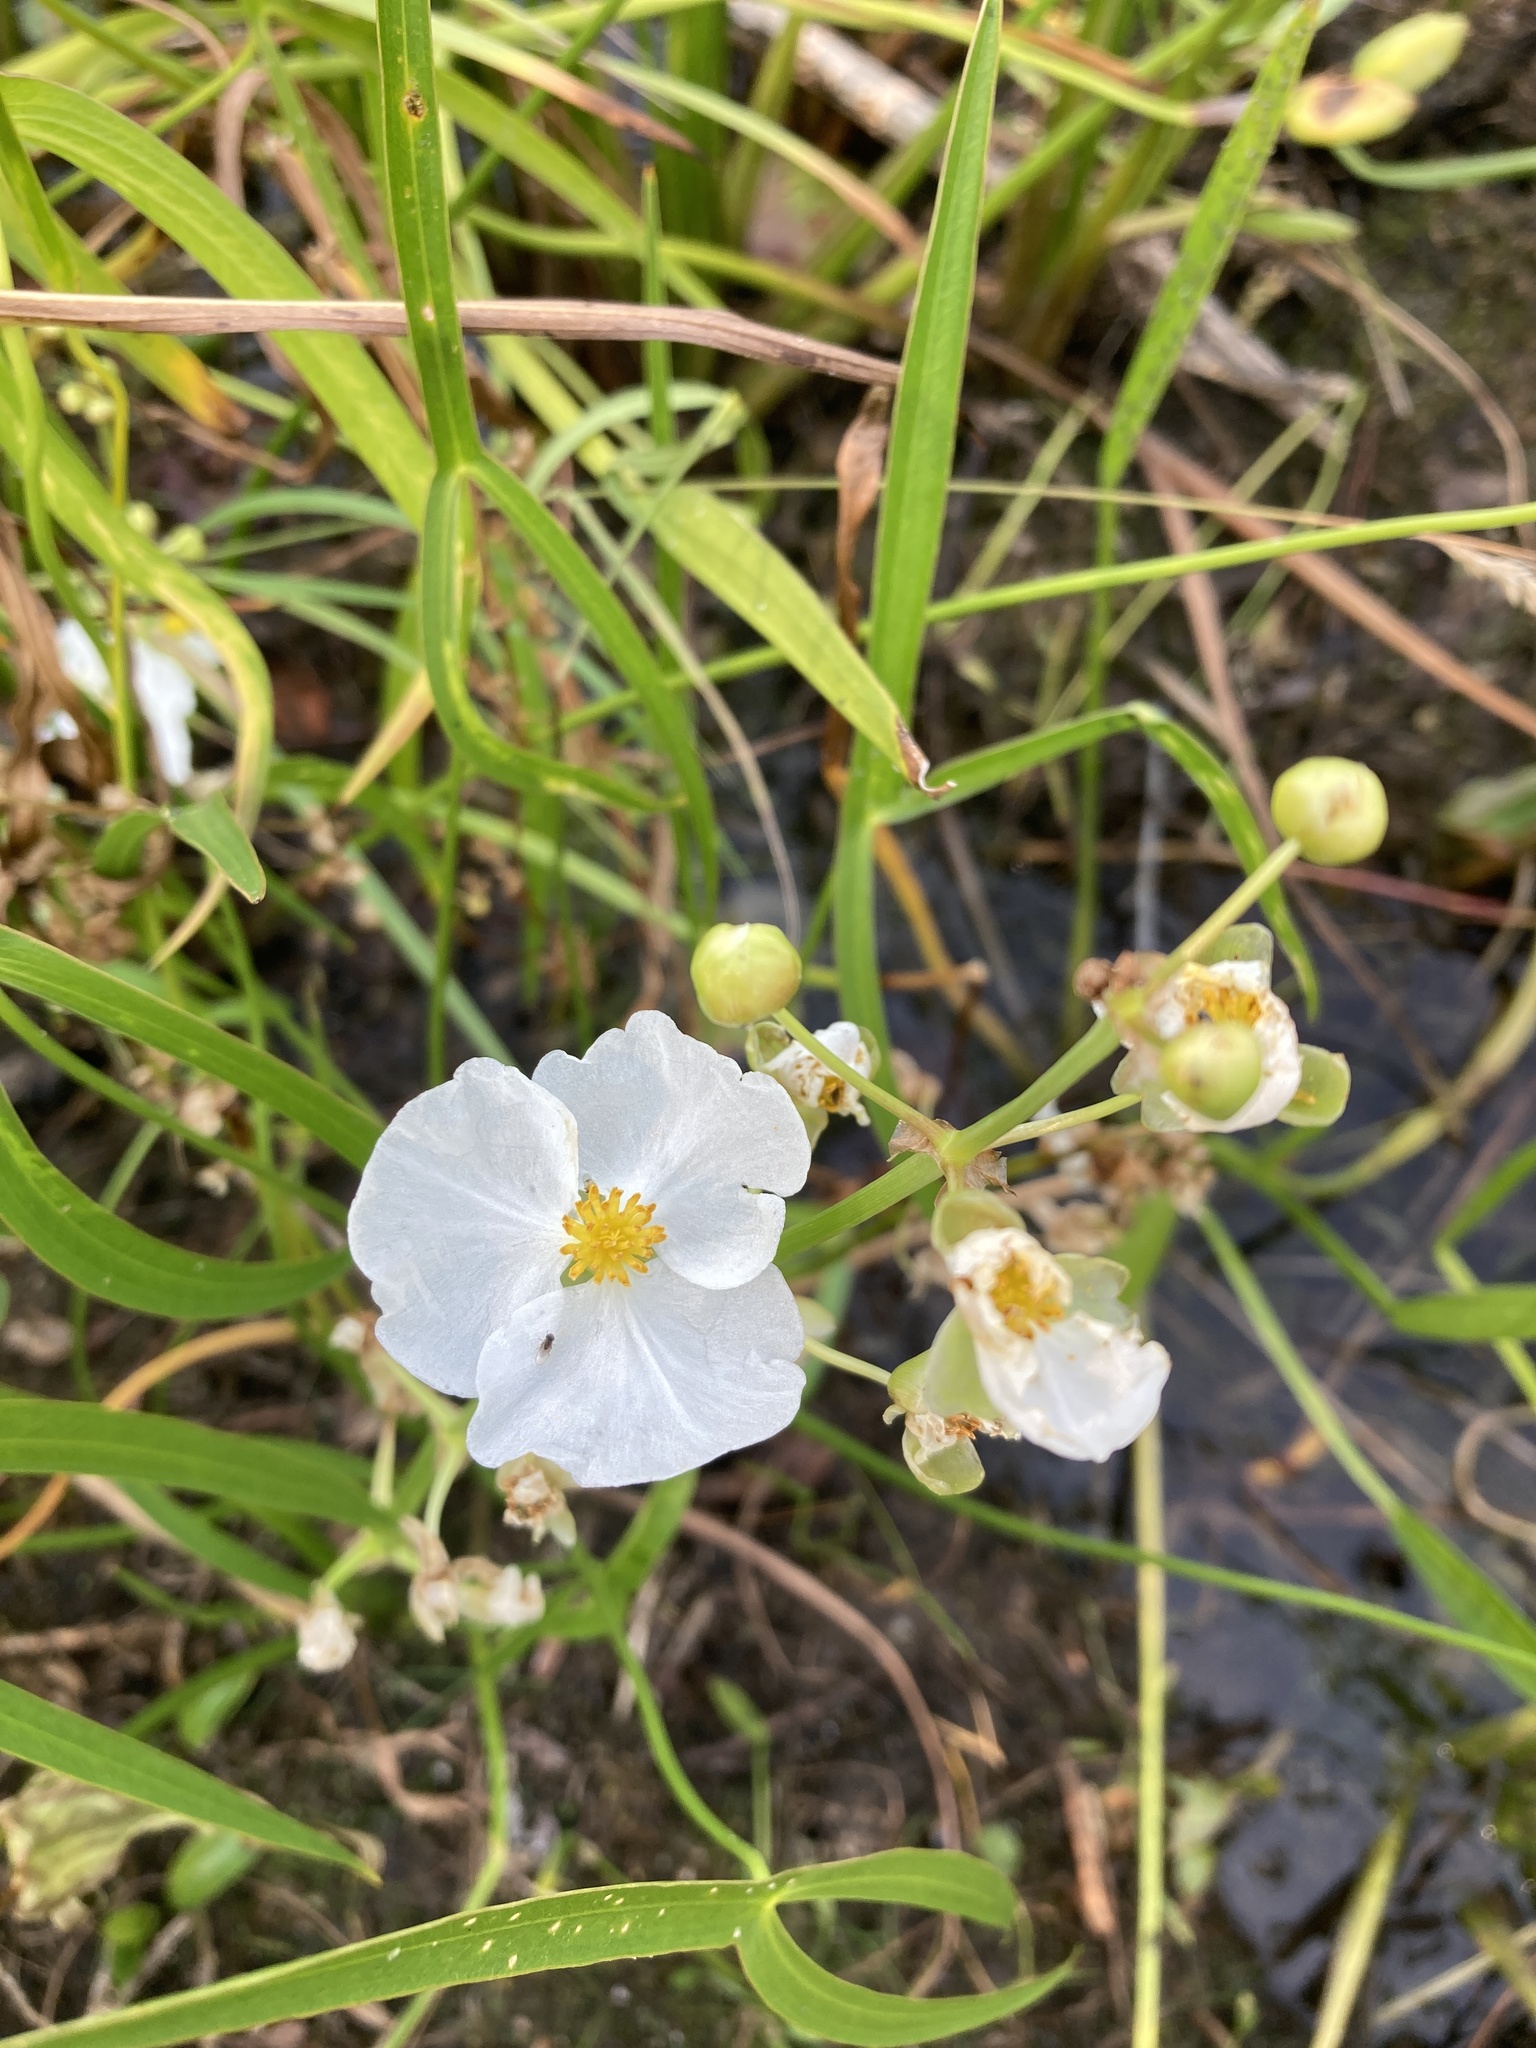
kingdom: Plantae
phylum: Tracheophyta
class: Liliopsida
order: Alismatales
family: Alismataceae
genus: Sagittaria
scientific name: Sagittaria latifolia
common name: Duck-potato
